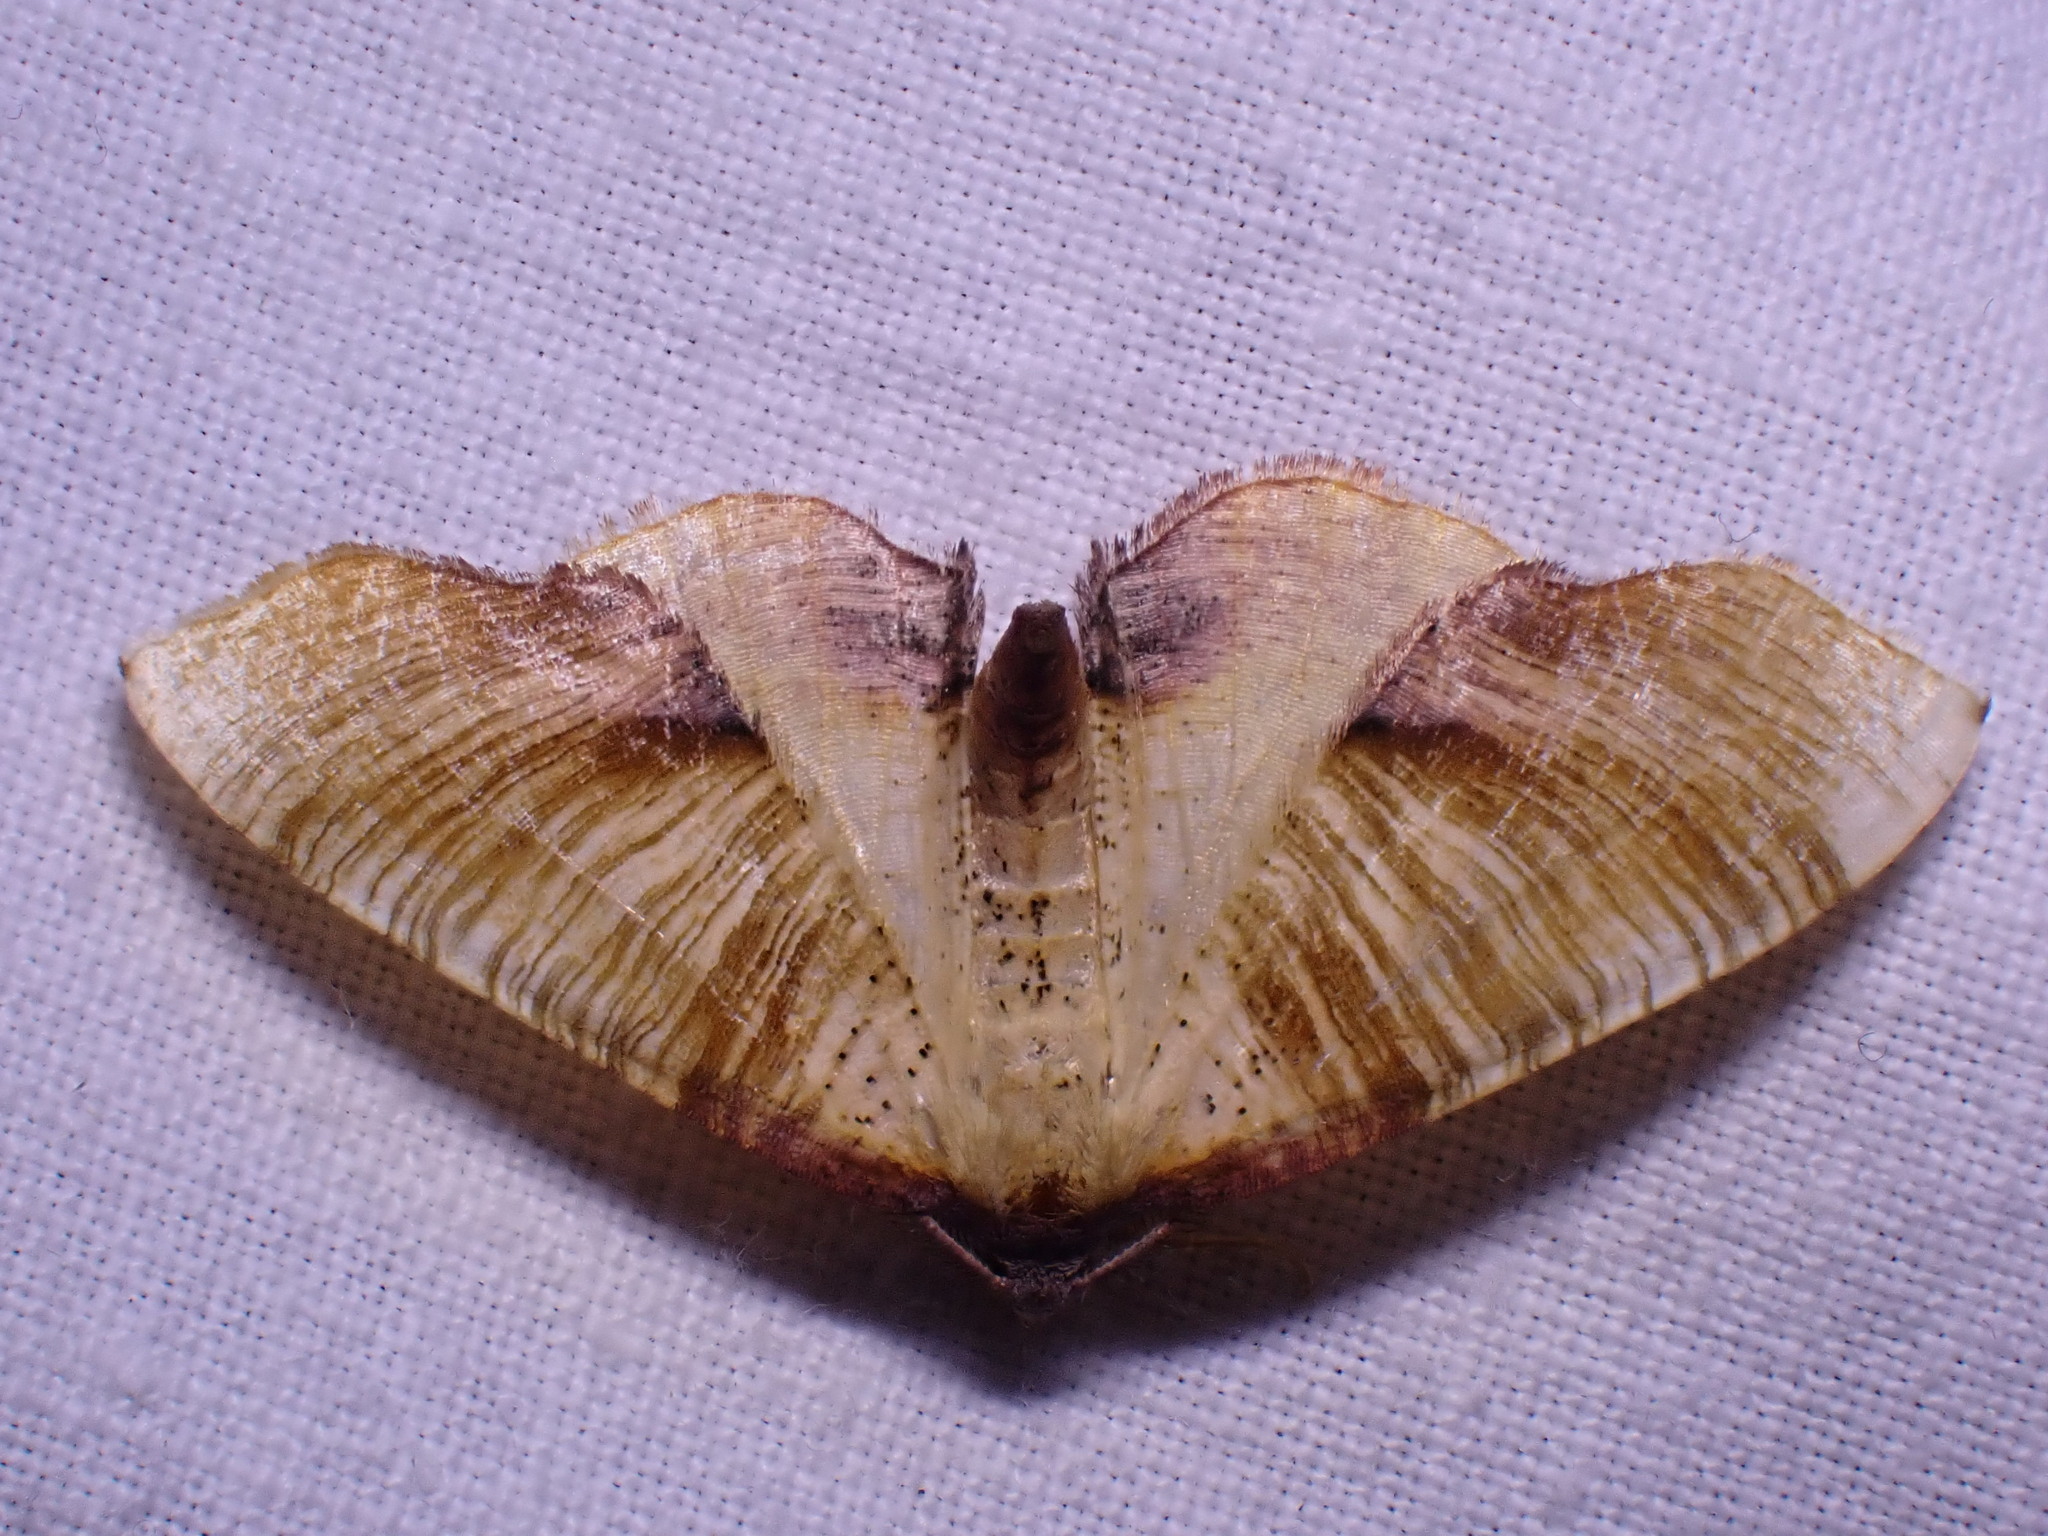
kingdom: Animalia
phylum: Arthropoda
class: Insecta
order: Lepidoptera
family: Geometridae
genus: Plagodis
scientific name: Plagodis dolabraria
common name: Scorched wing
